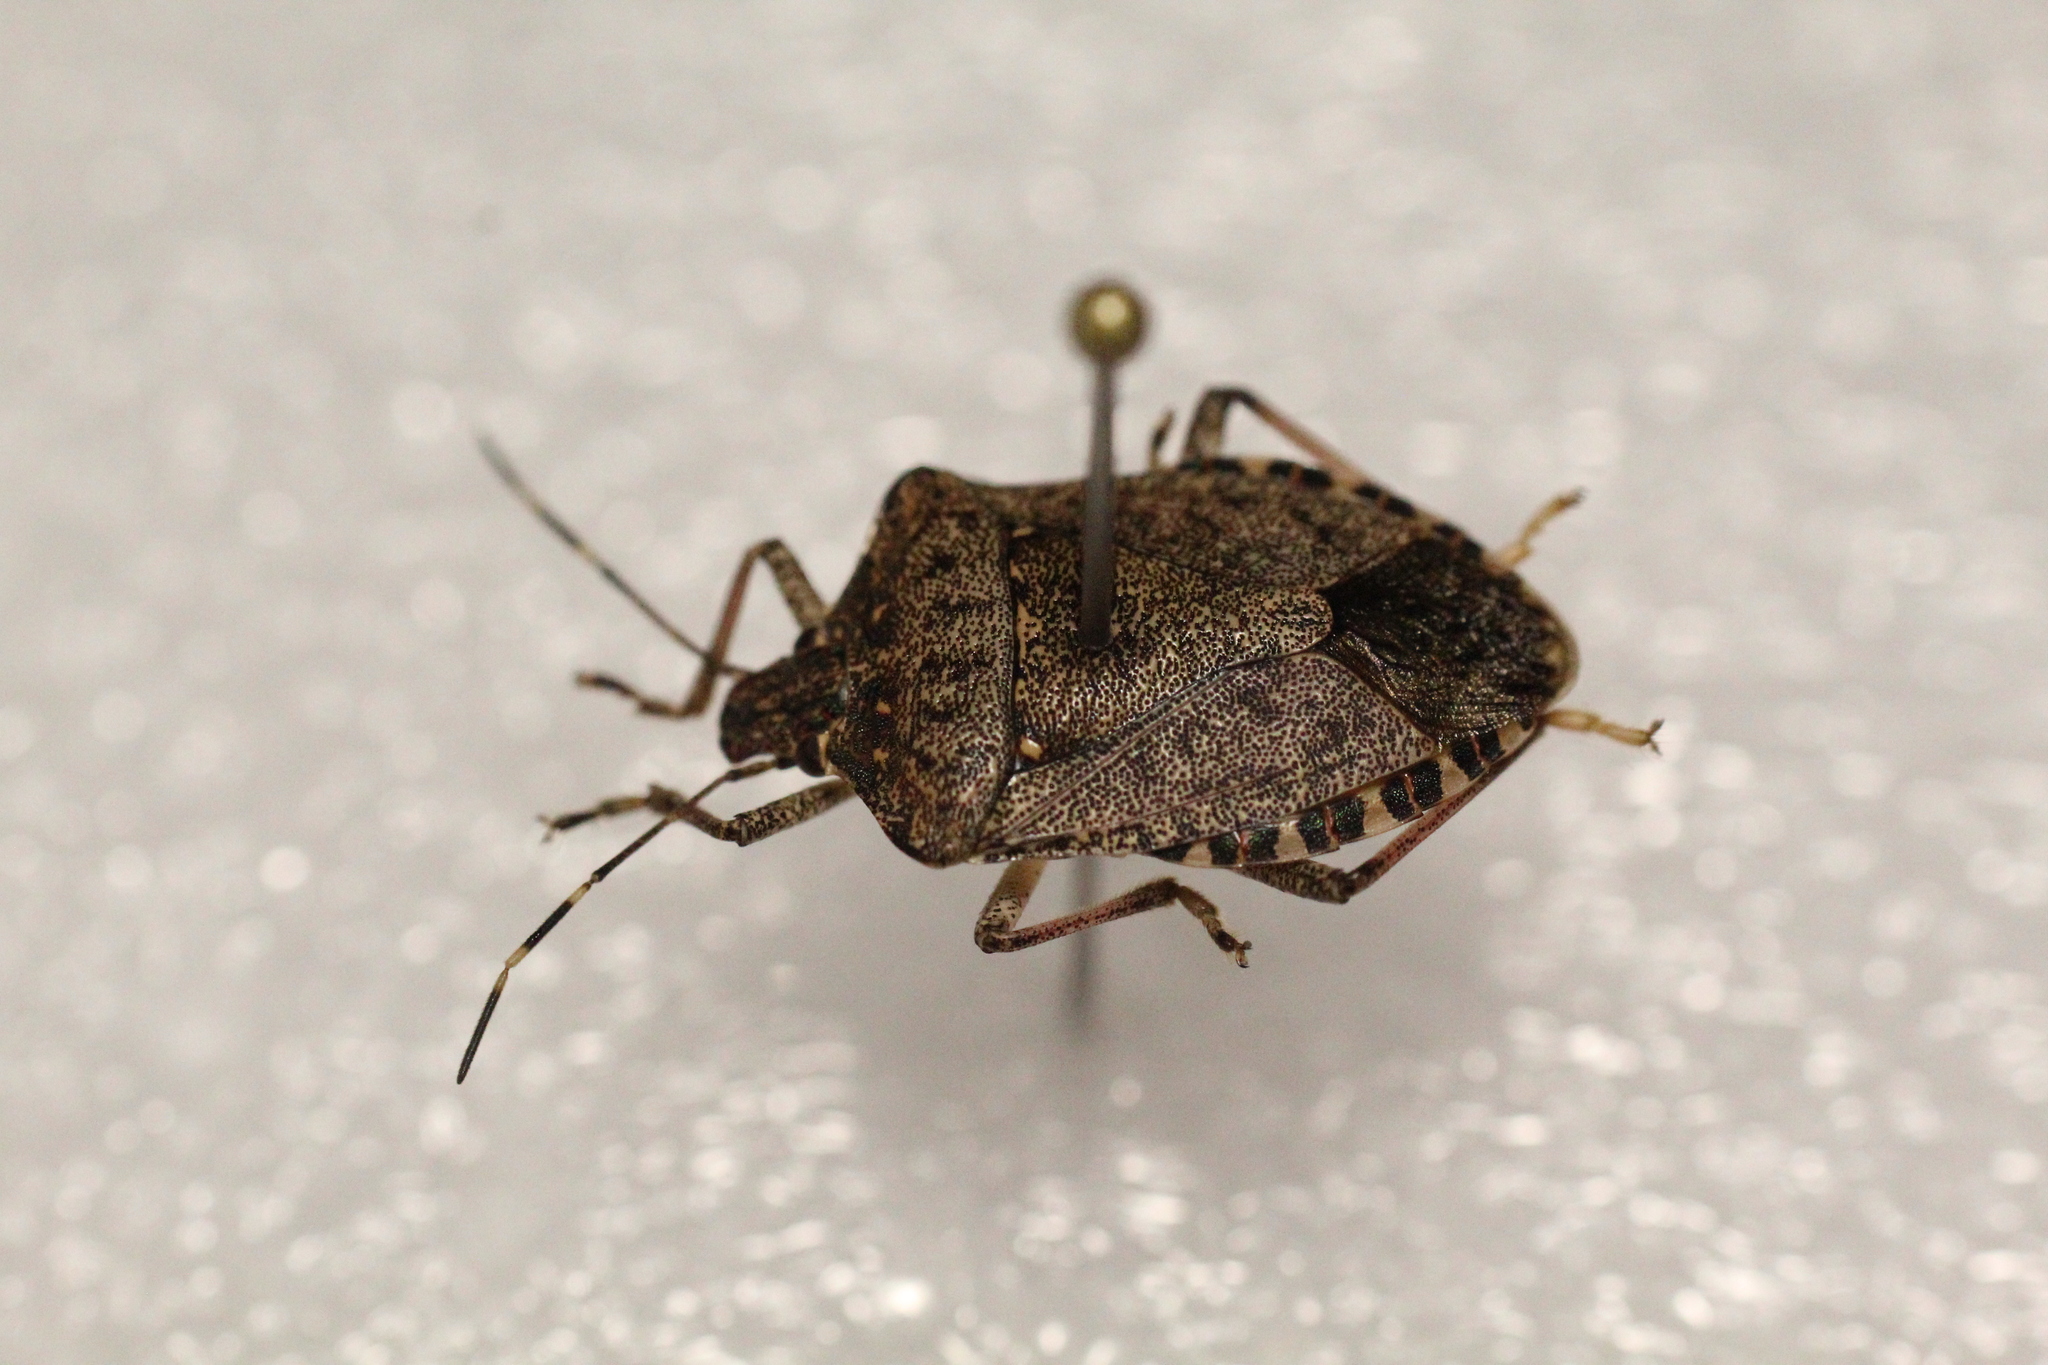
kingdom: Animalia
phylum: Arthropoda
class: Insecta
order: Hemiptera
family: Pentatomidae
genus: Halyomorpha
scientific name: Halyomorpha halys
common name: Brown marmorated stink bug
